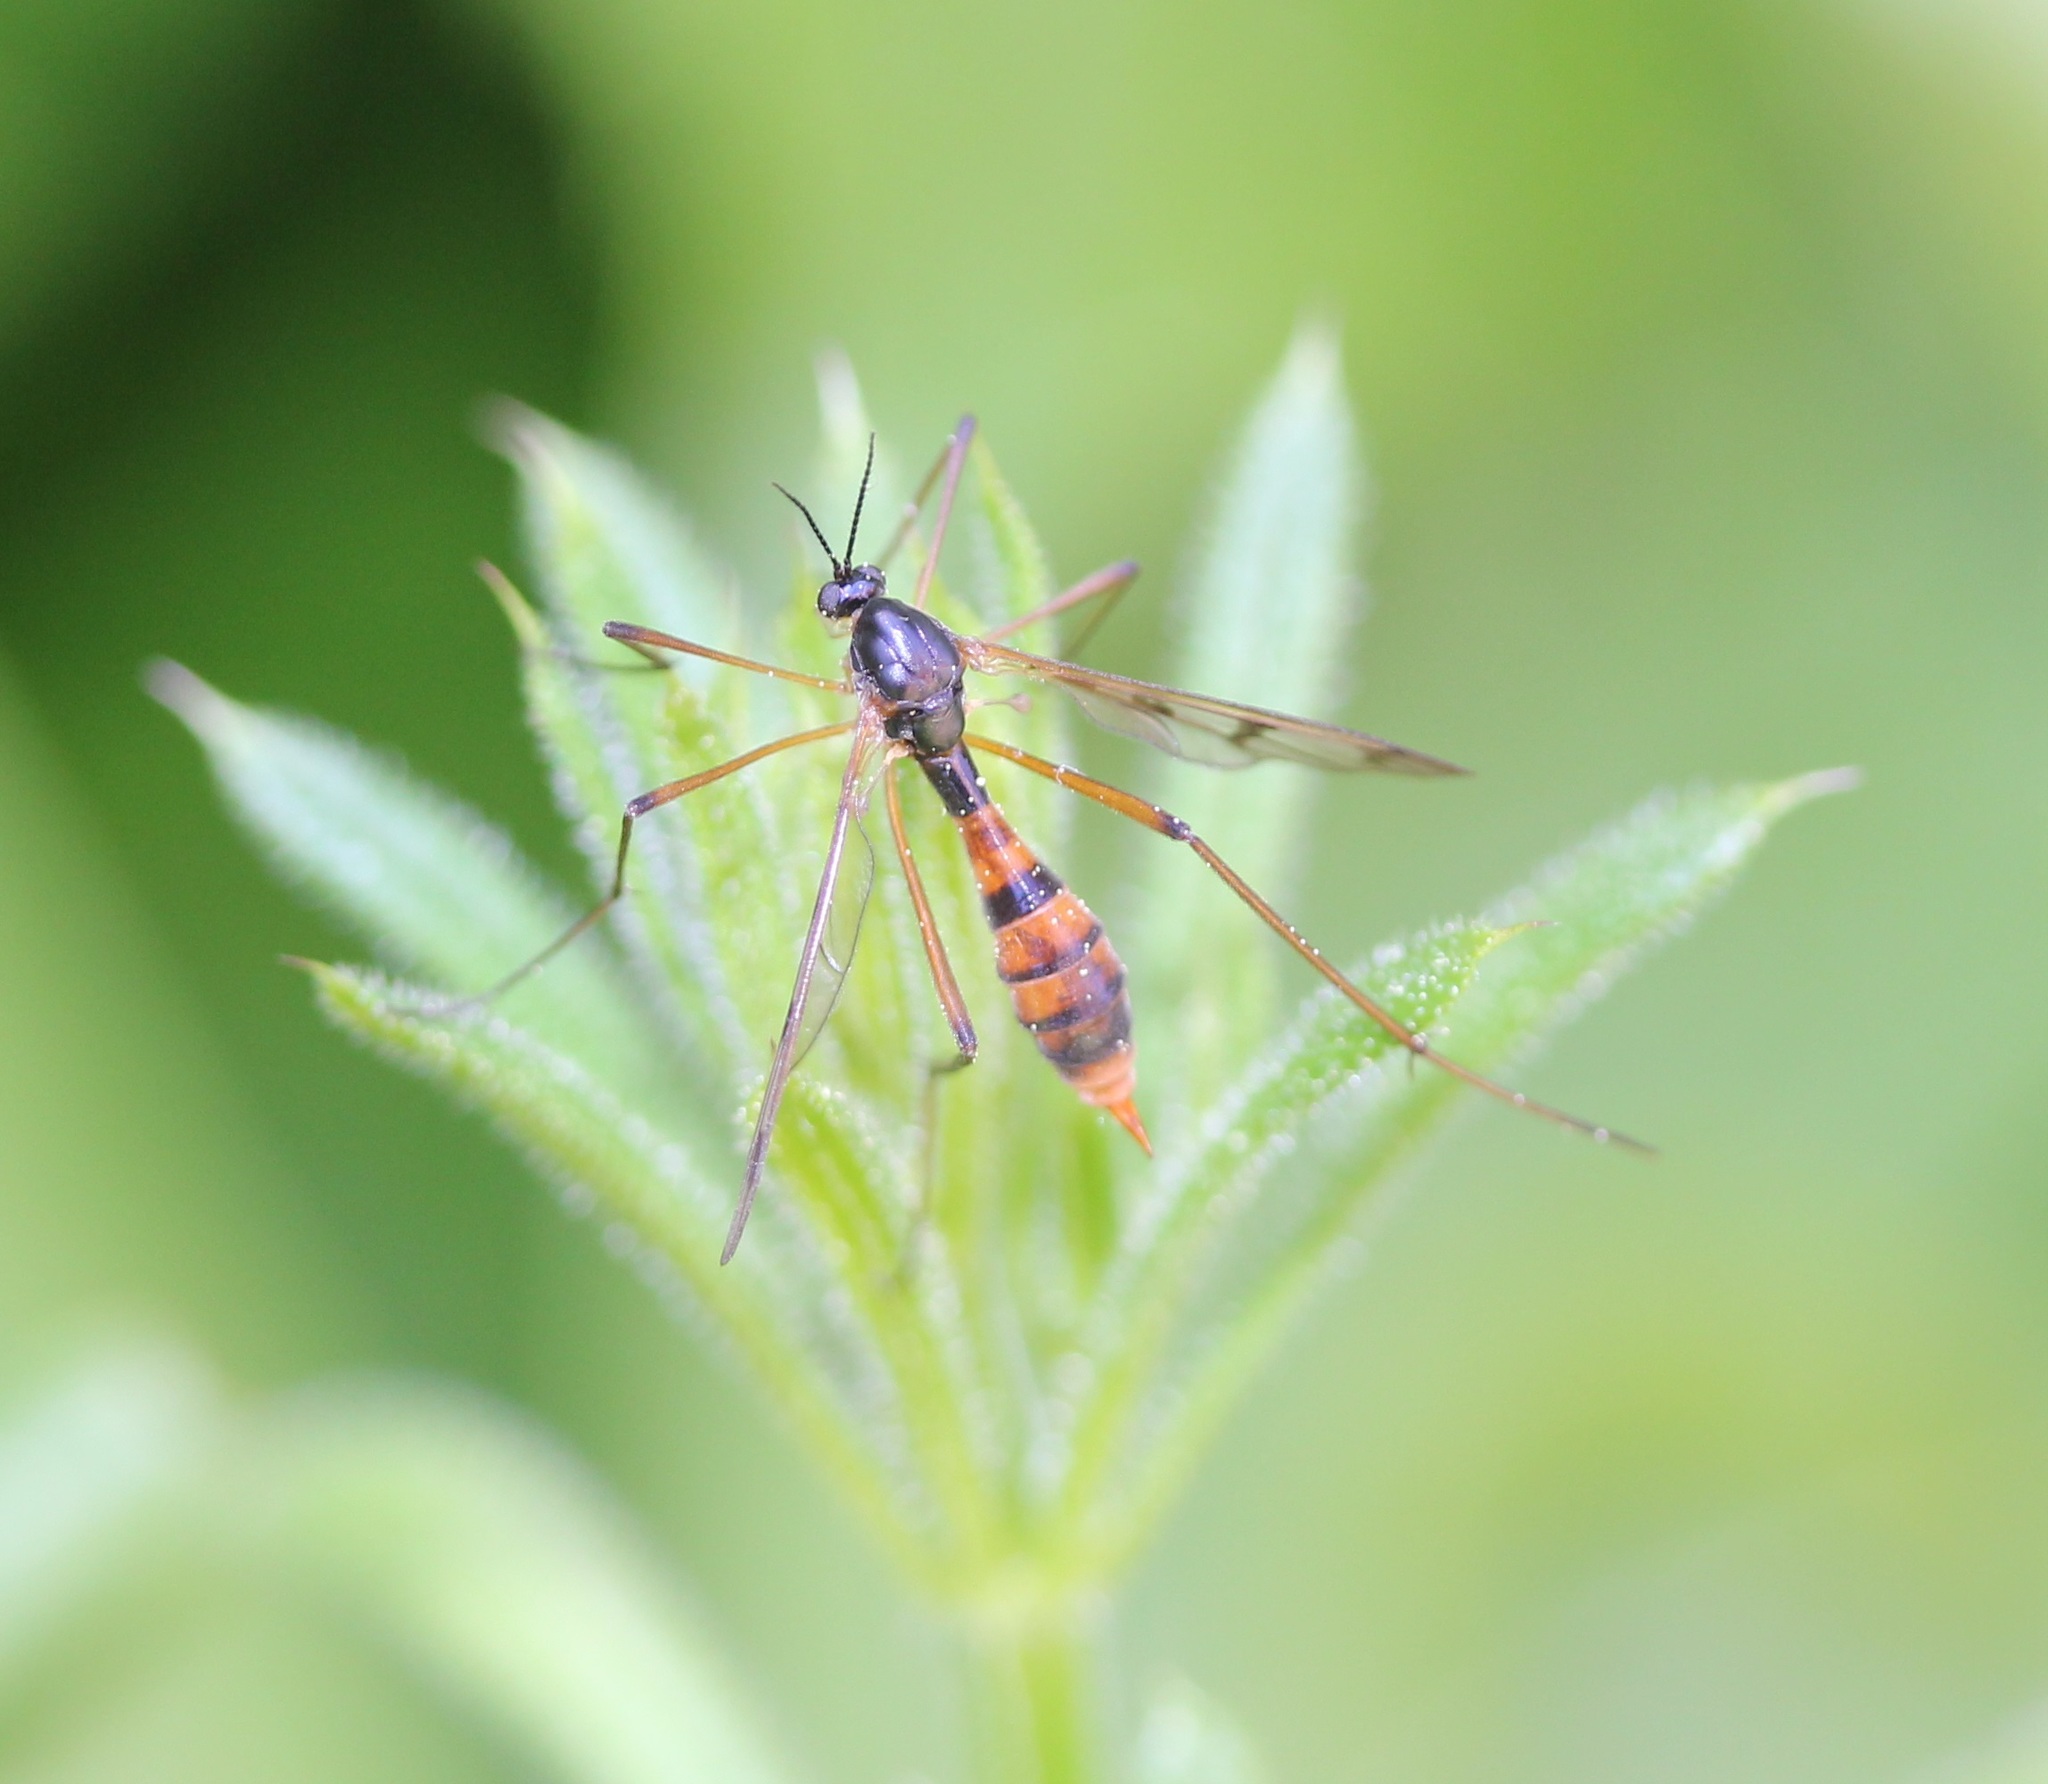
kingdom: Animalia
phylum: Arthropoda
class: Insecta
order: Diptera
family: Ptychopteridae
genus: Ptychoptera
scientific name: Ptychoptera quadrifasciata
